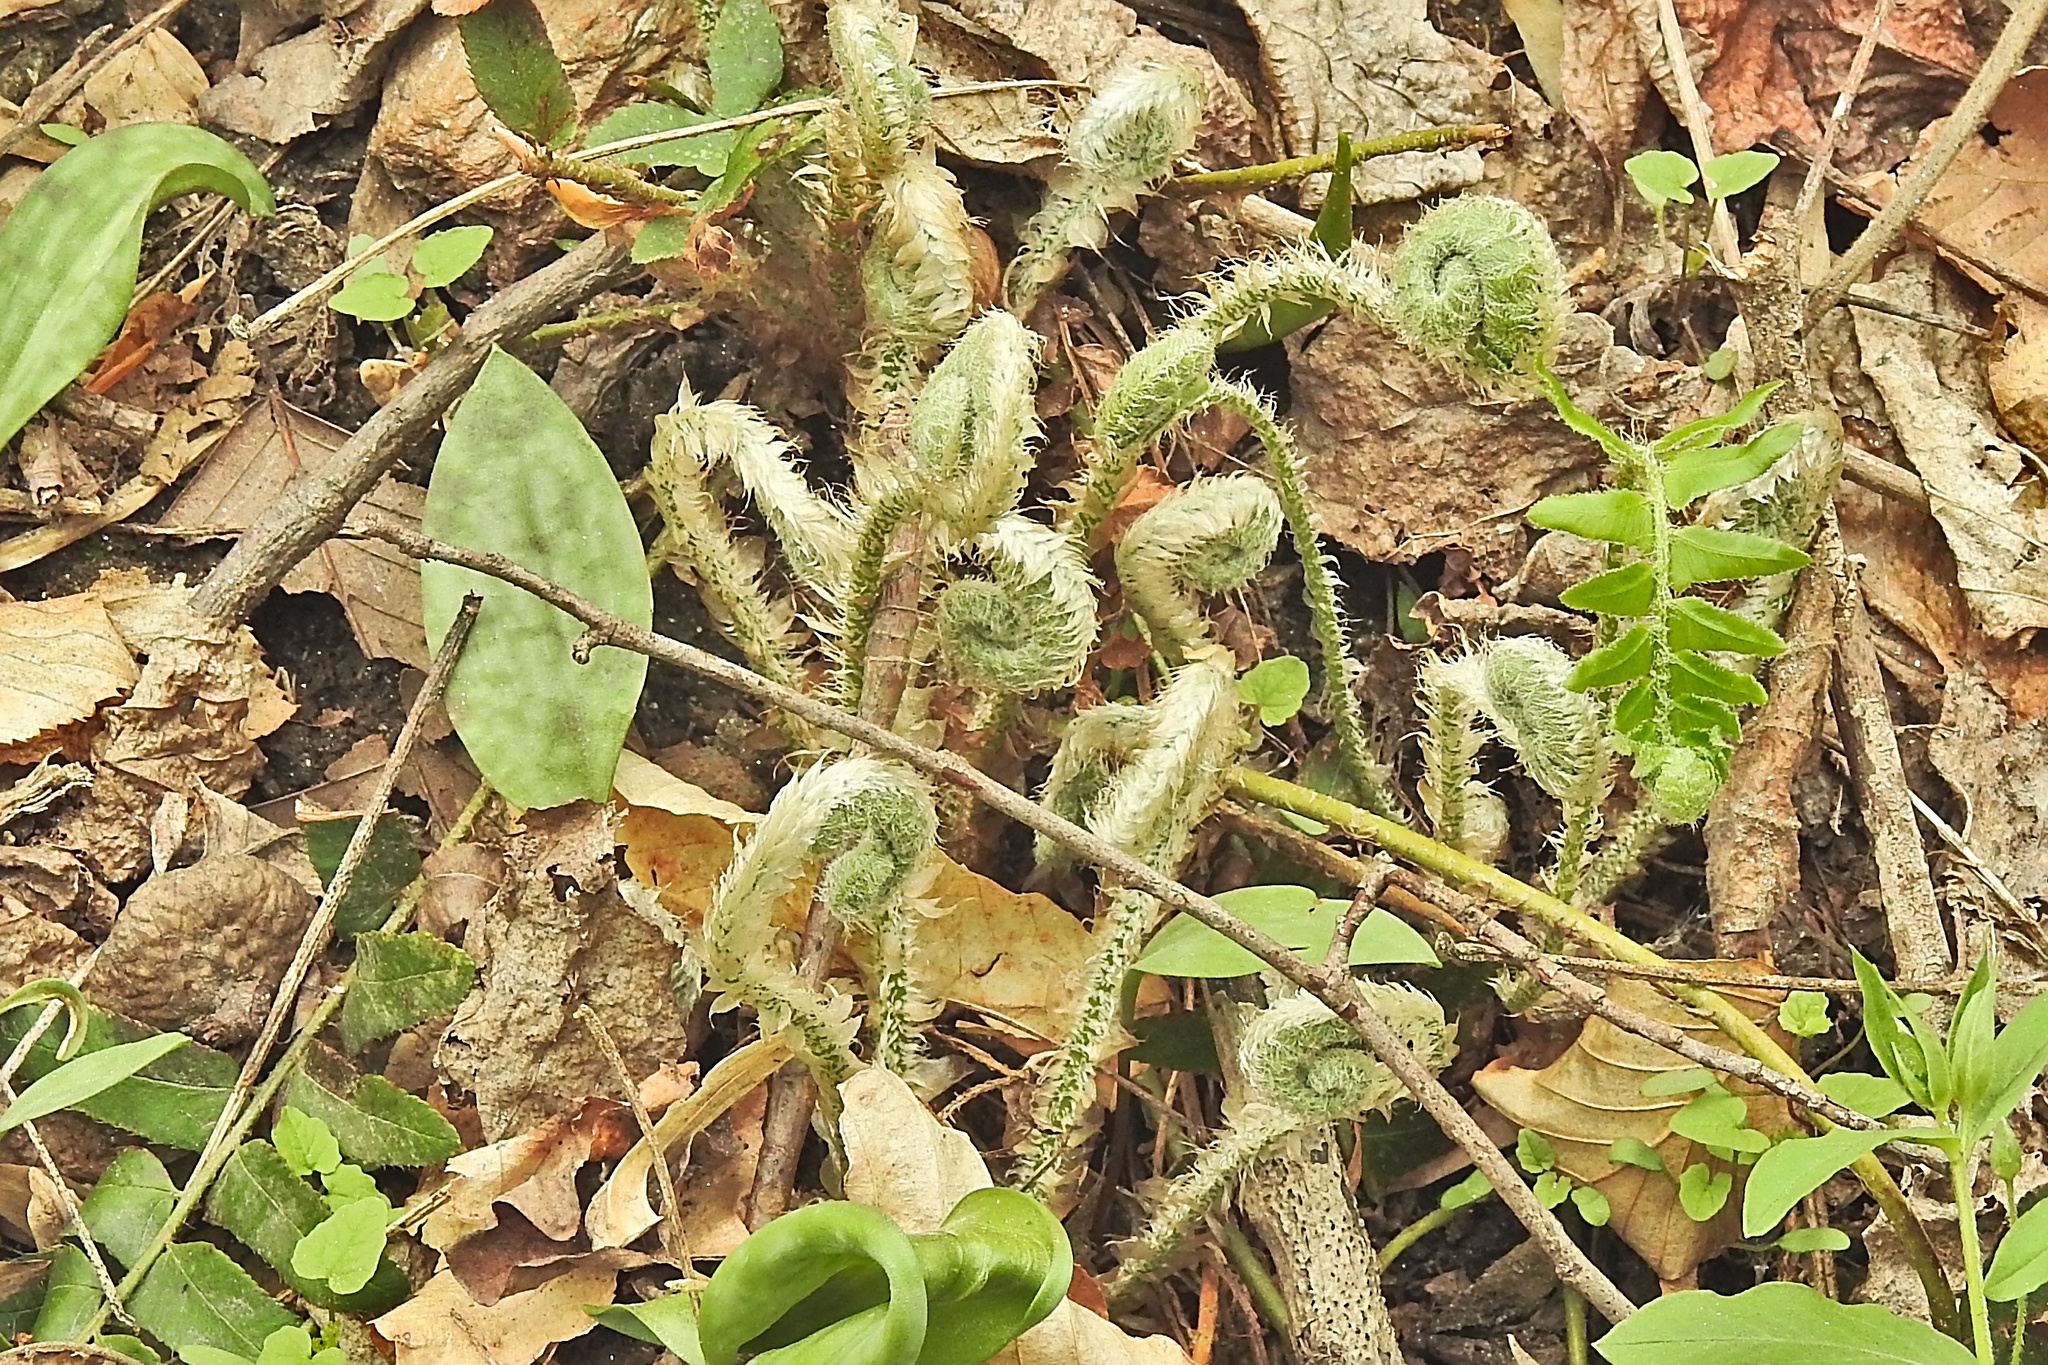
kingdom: Plantae
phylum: Tracheophyta
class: Polypodiopsida
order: Polypodiales
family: Dryopteridaceae
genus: Polystichum
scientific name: Polystichum acrostichoides
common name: Christmas fern
